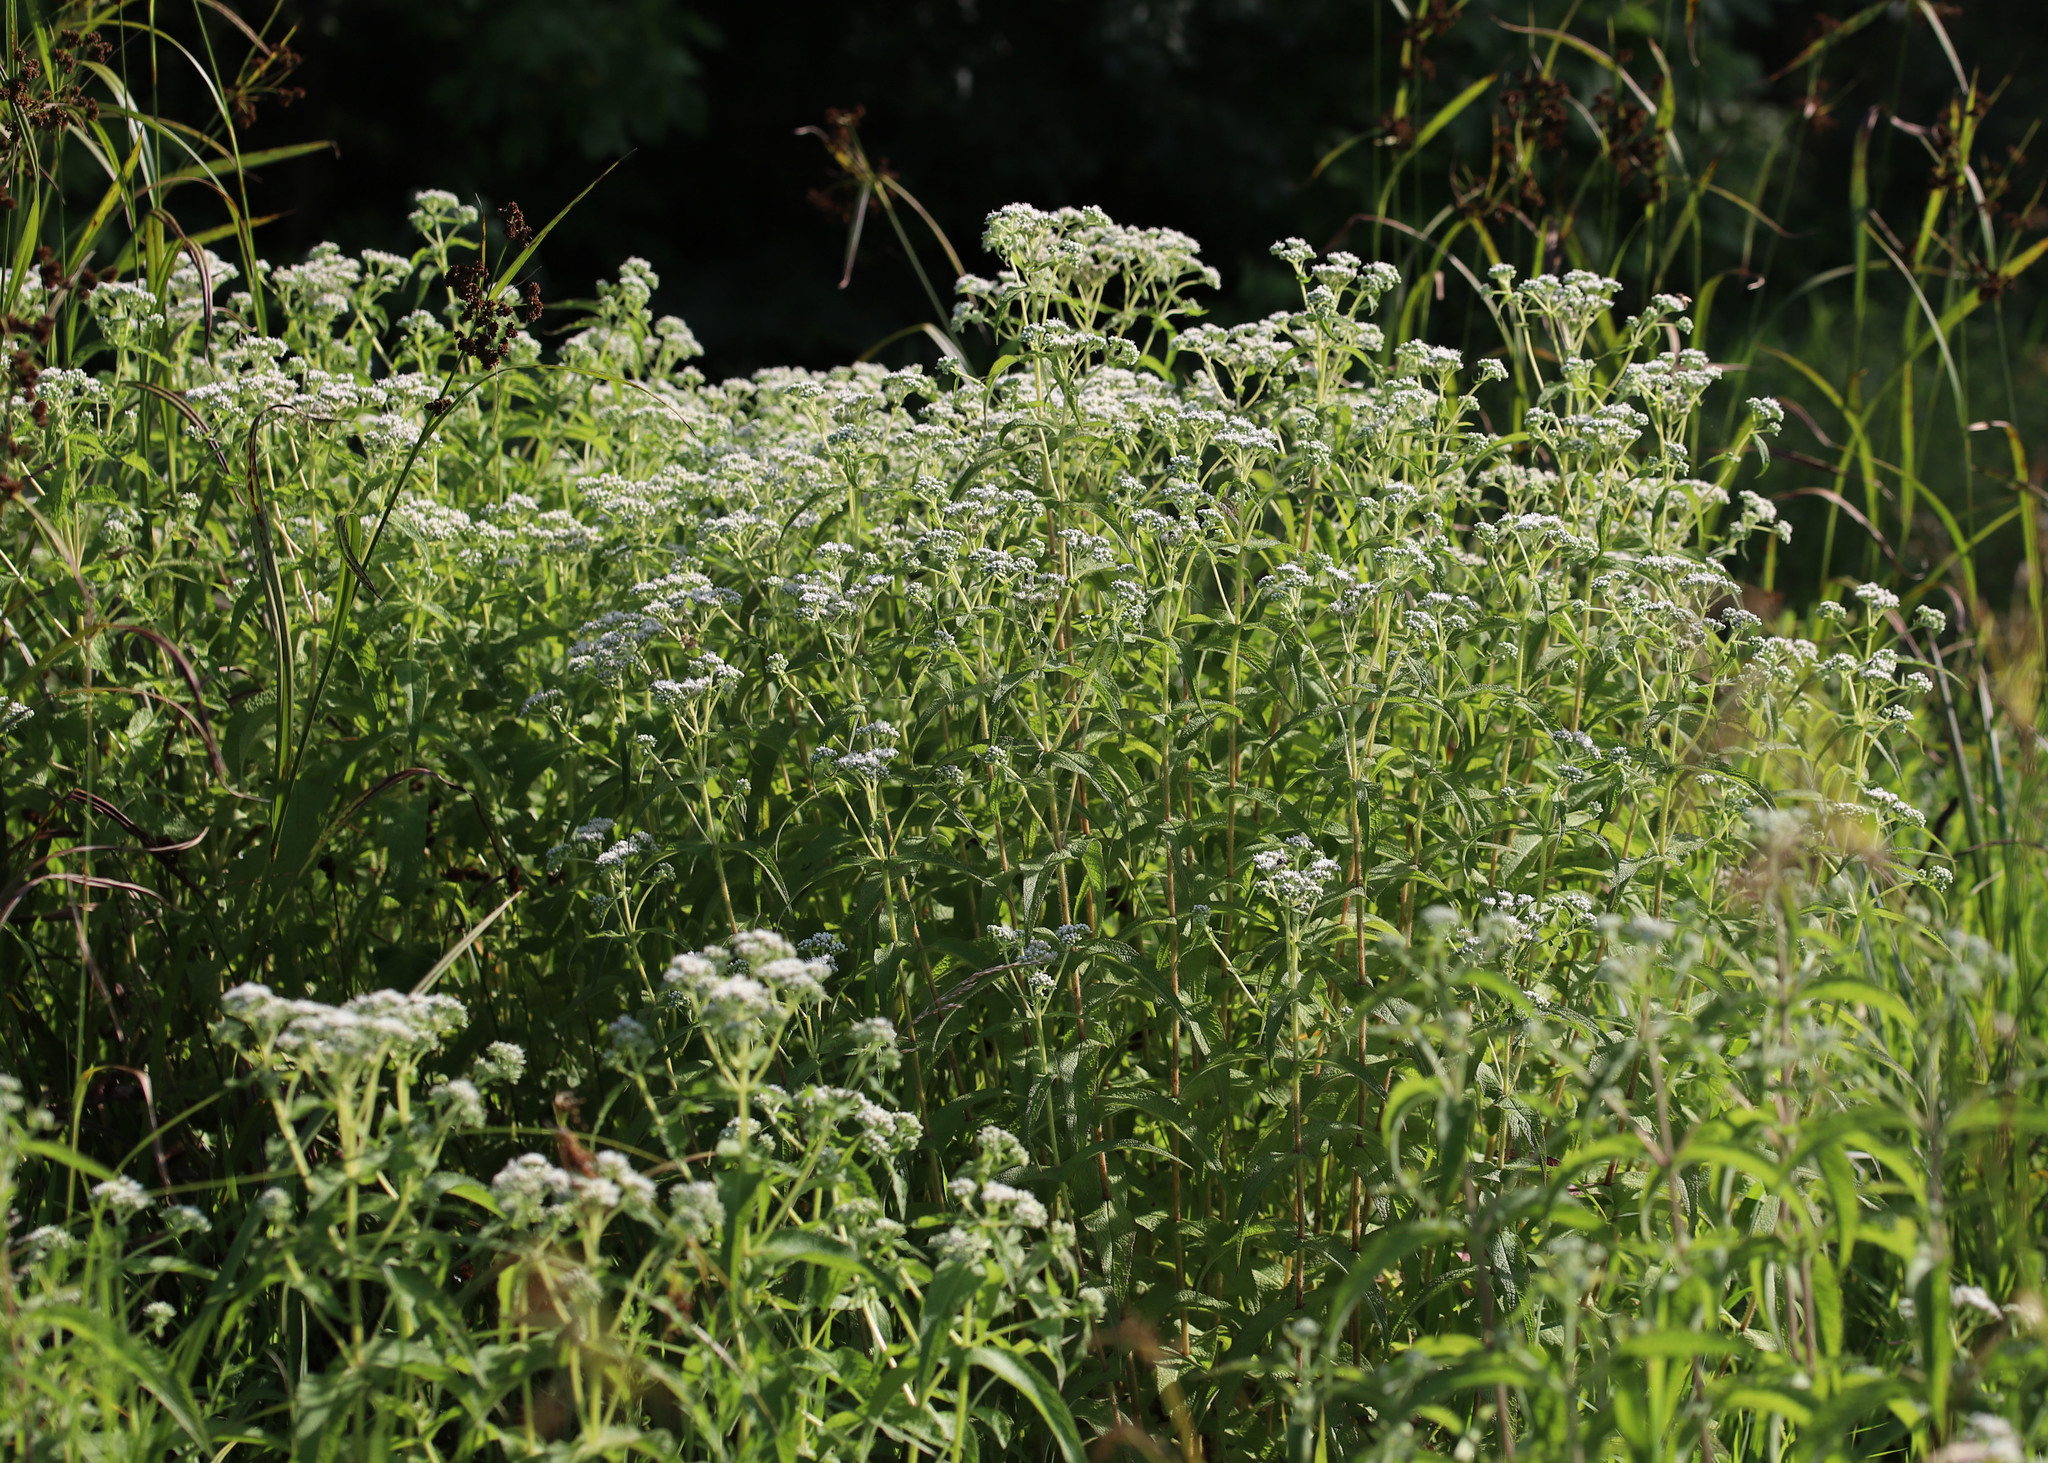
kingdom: Plantae
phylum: Tracheophyta
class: Magnoliopsida
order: Asterales
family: Asteraceae
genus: Eupatorium
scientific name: Eupatorium perfoliatum
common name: Boneset
